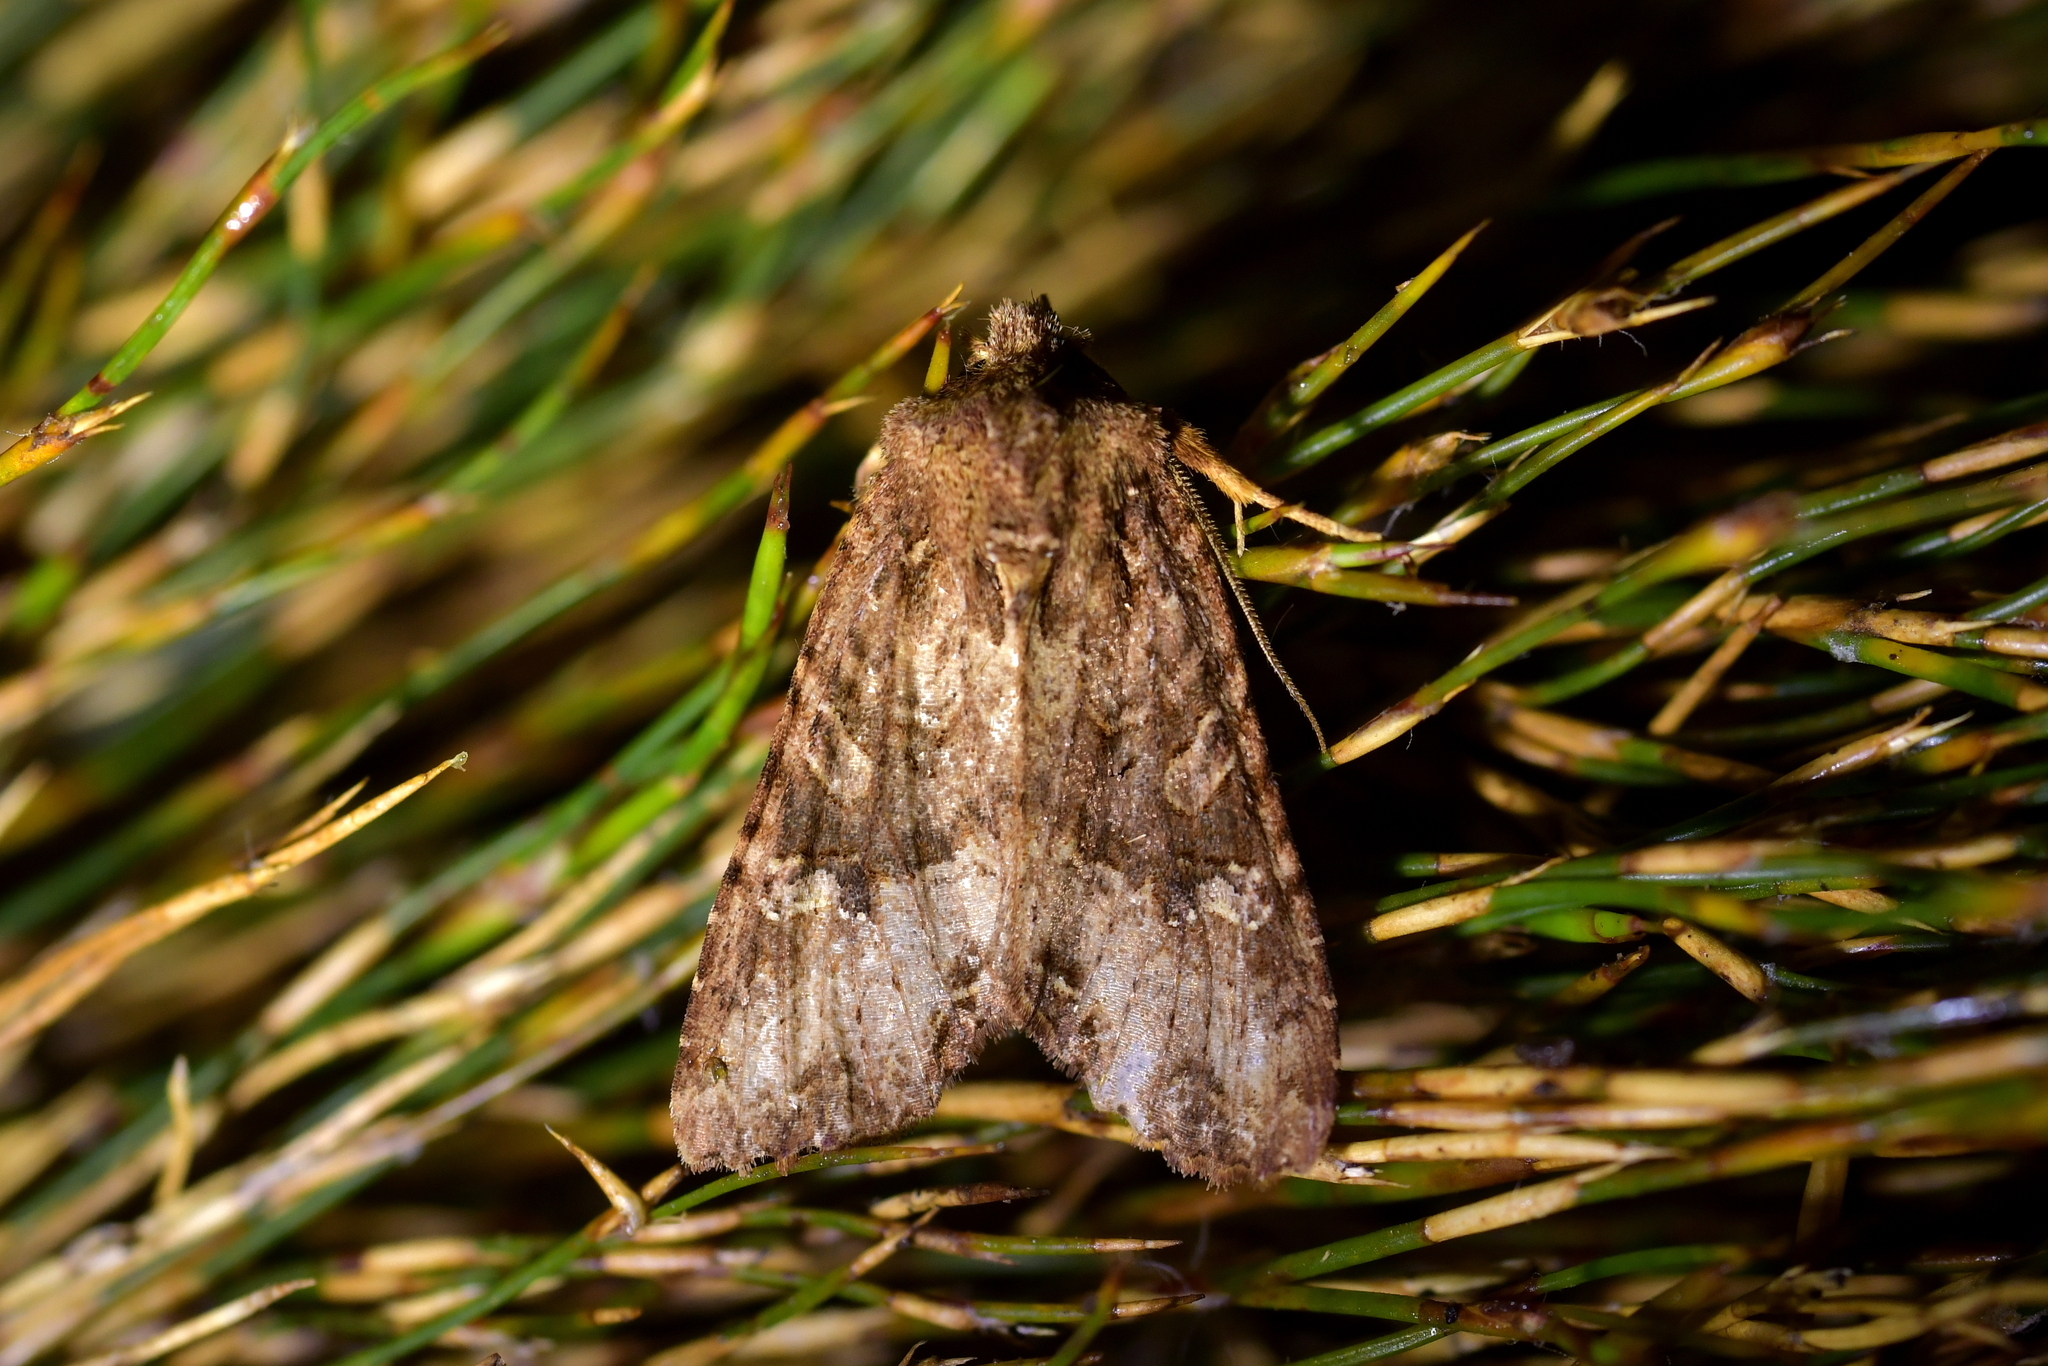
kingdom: Animalia
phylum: Arthropoda
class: Insecta
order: Lepidoptera
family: Noctuidae
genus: Meterana
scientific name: Meterana
